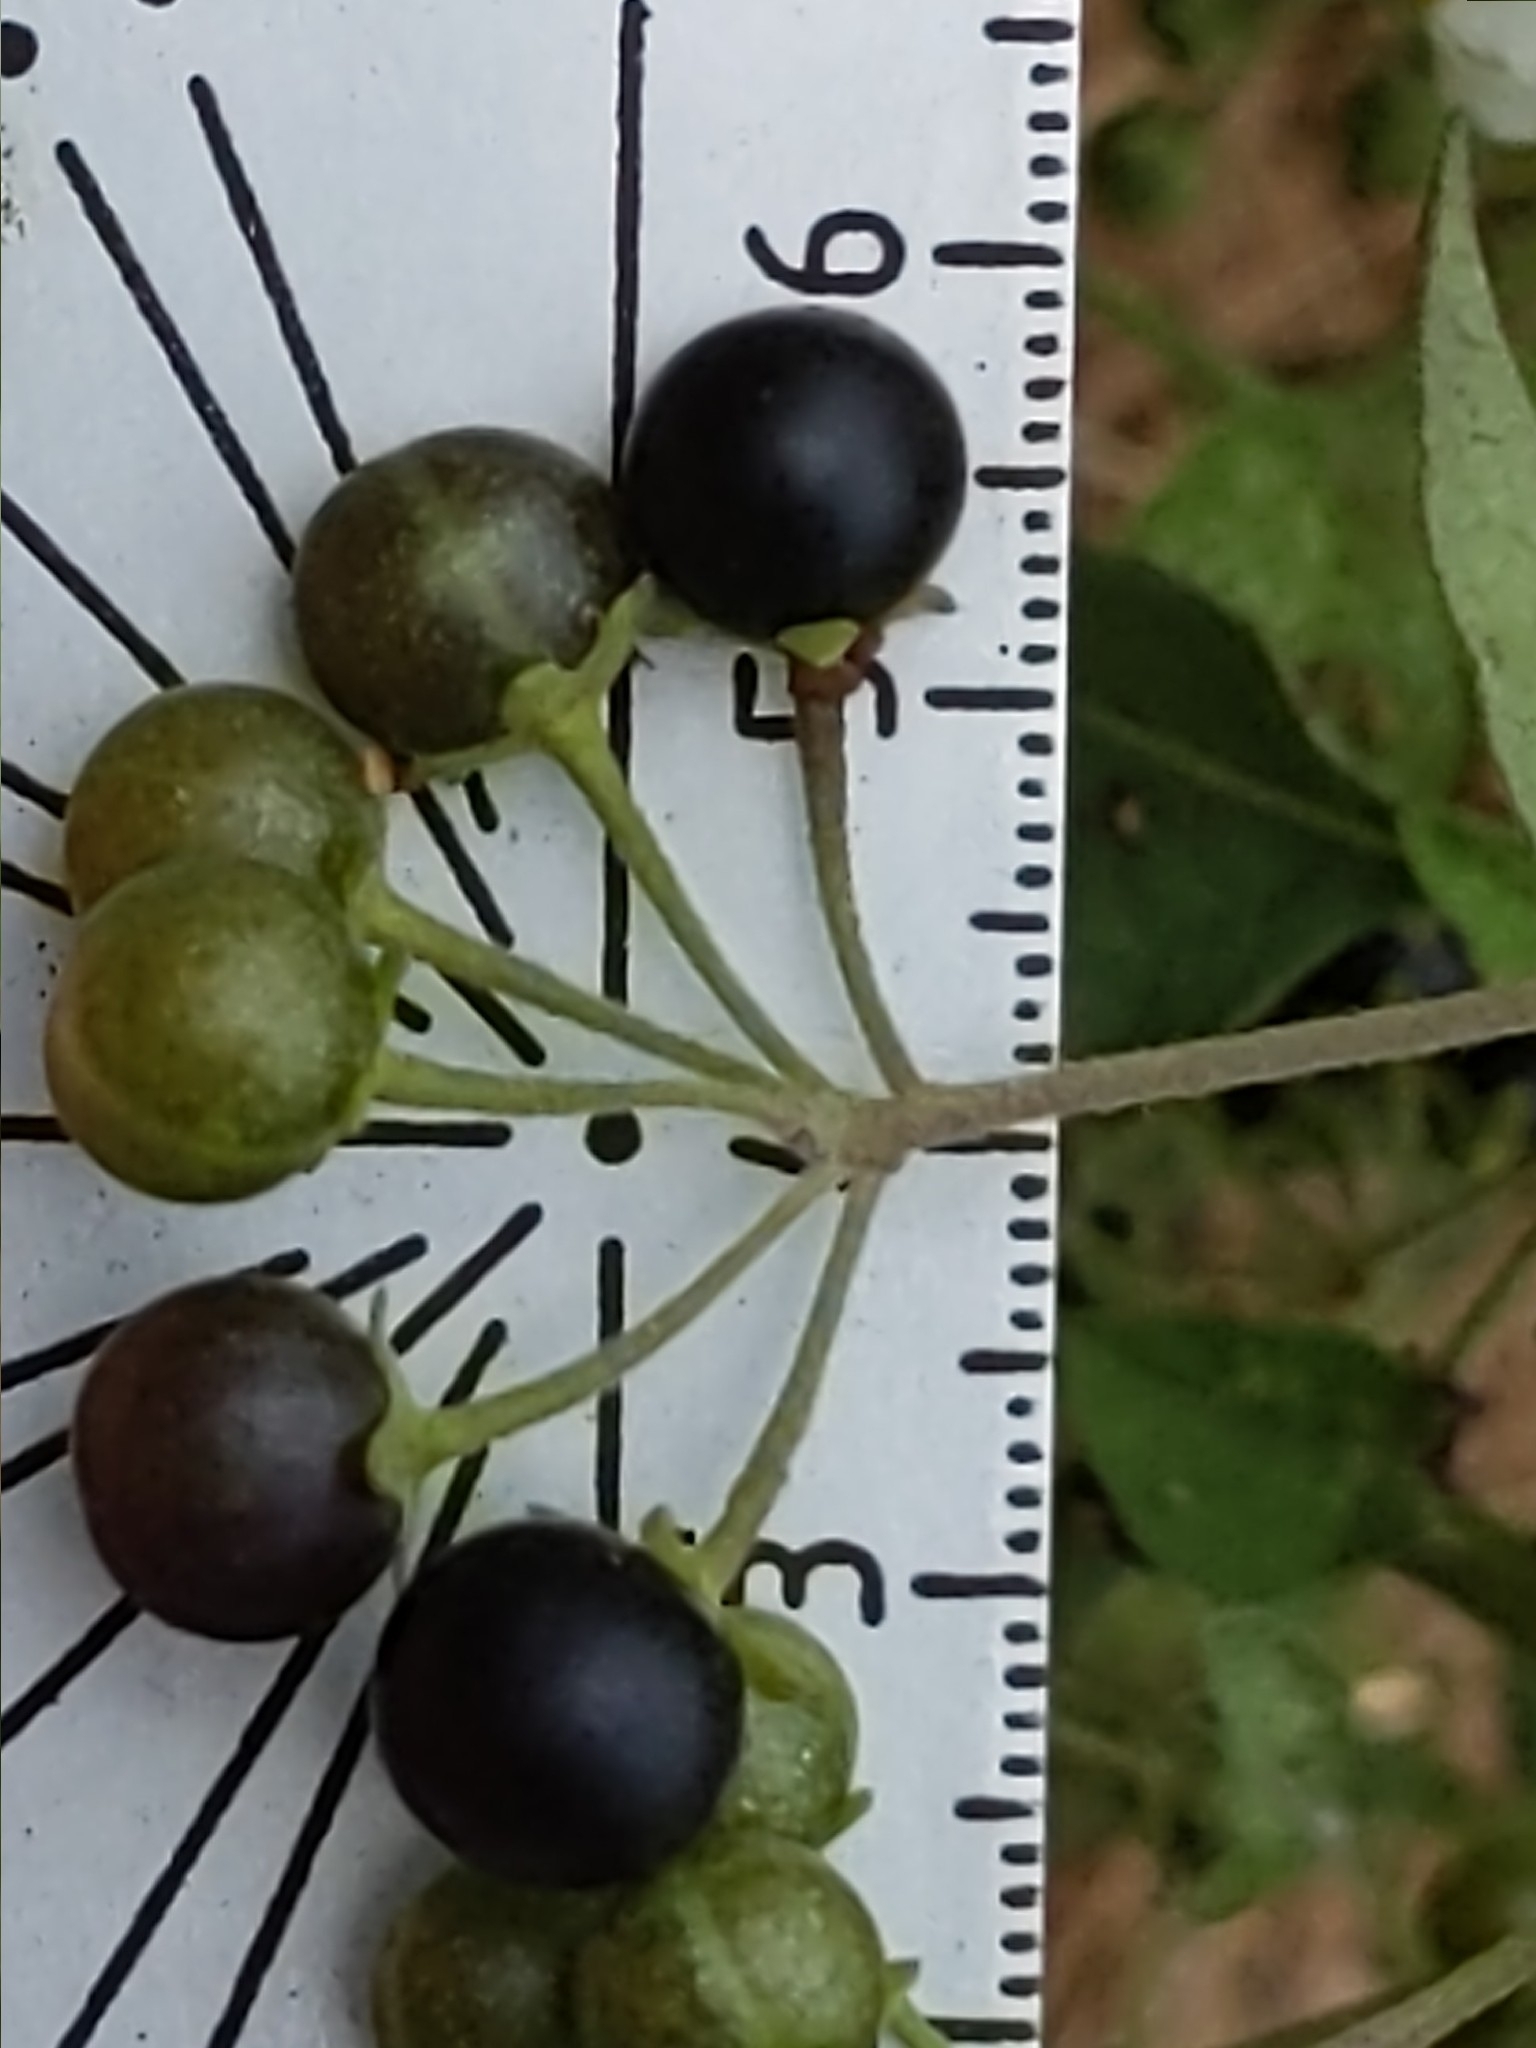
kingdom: Plantae
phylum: Tracheophyta
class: Magnoliopsida
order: Solanales
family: Solanaceae
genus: Solanum
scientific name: Solanum douglasii
